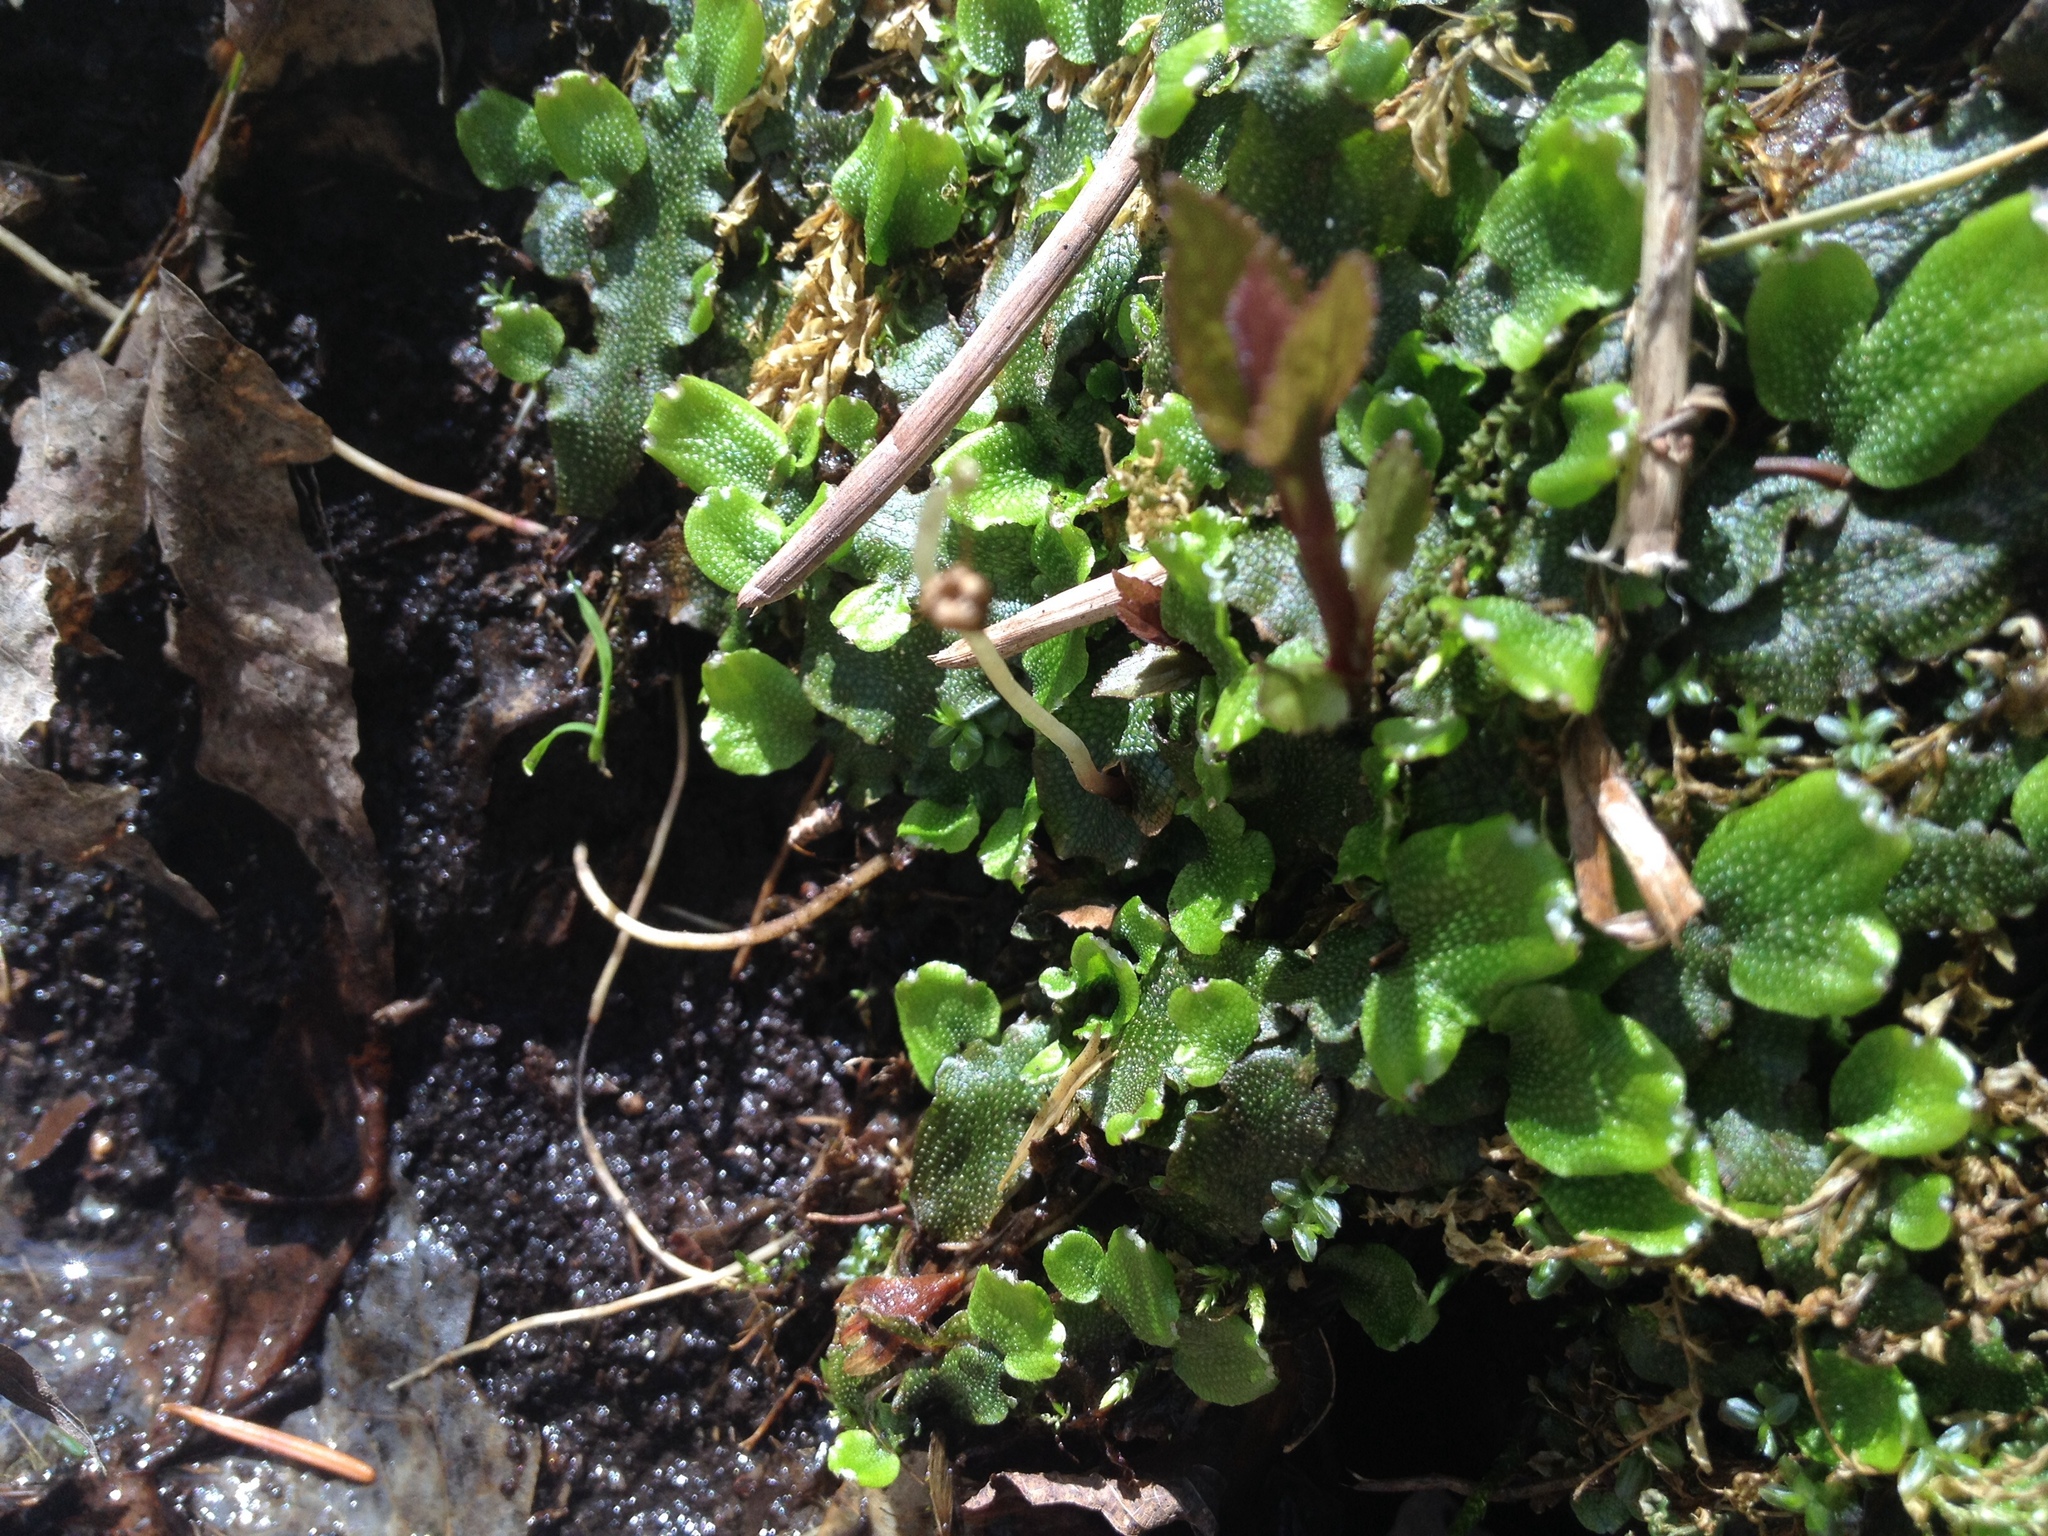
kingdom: Plantae
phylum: Marchantiophyta
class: Marchantiopsida
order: Marchantiales
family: Conocephalaceae
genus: Conocephalum
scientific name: Conocephalum salebrosum
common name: Cat-tongue liverwort
